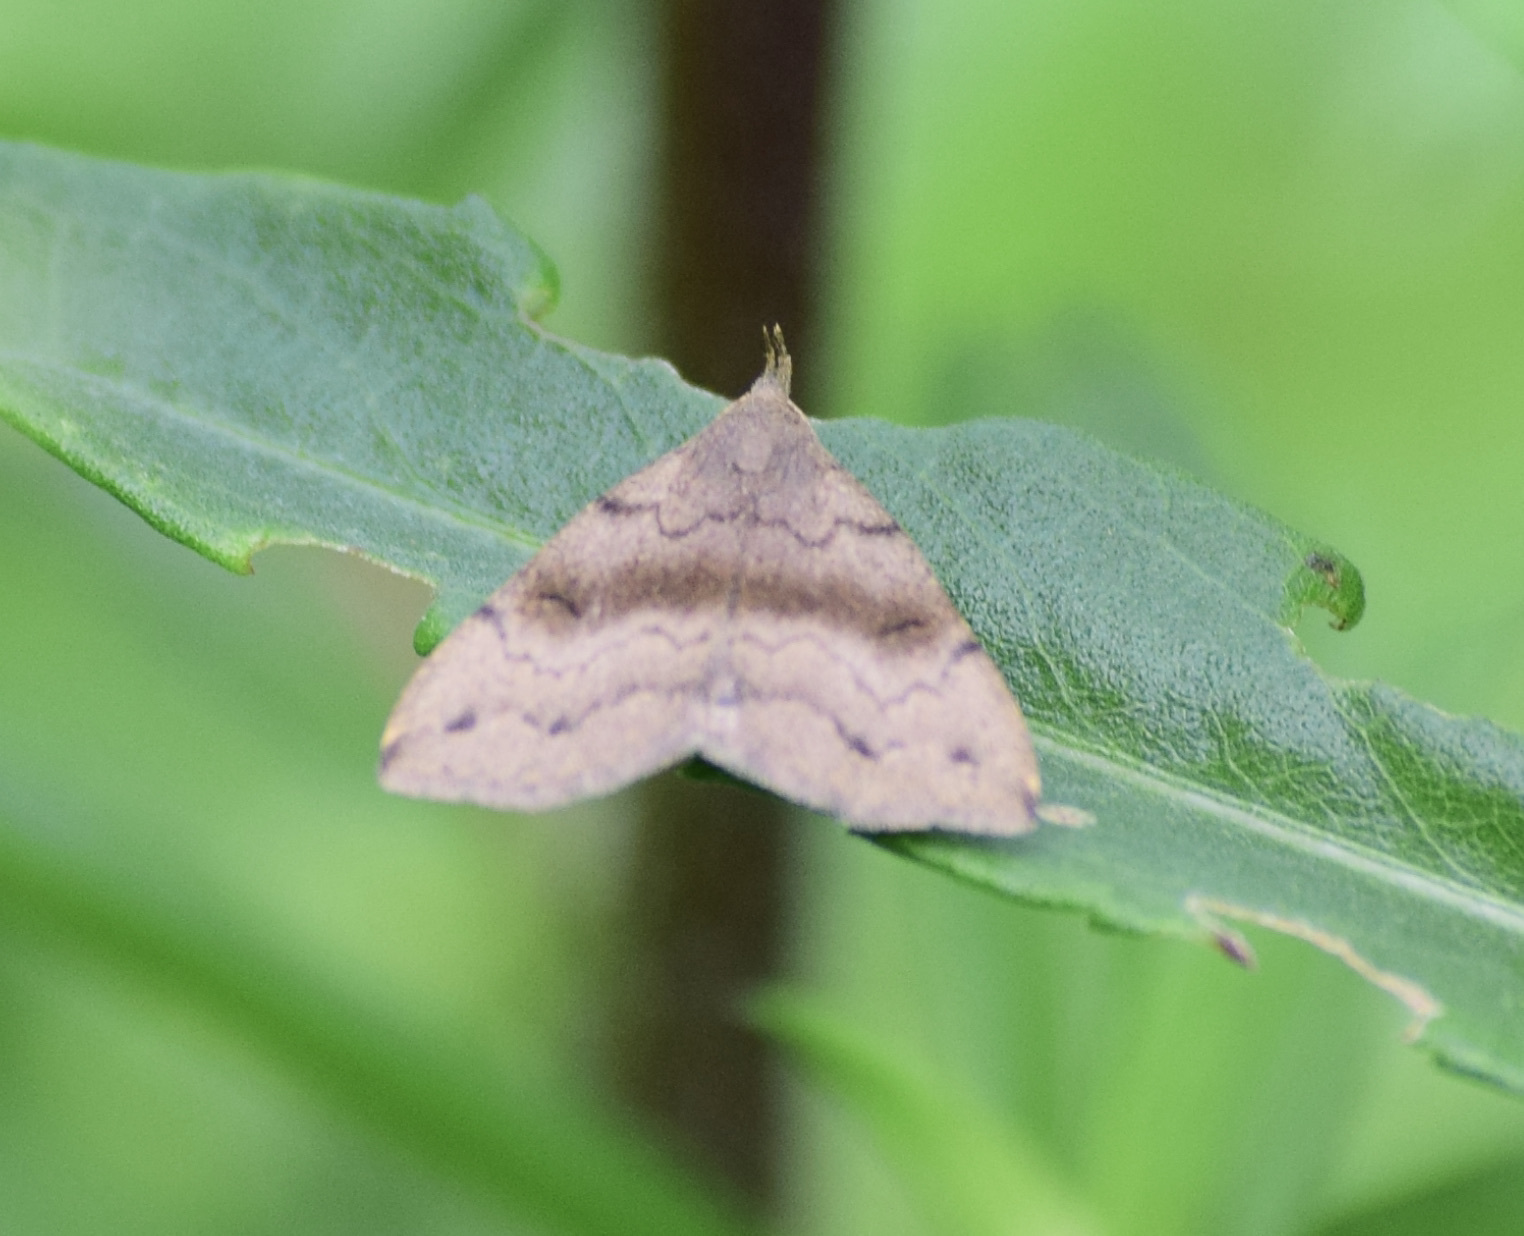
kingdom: Animalia
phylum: Arthropoda
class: Insecta
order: Lepidoptera
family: Erebidae
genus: Phalaenostola
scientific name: Phalaenostola eumelusalis
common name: Dark phalaenostola moth
